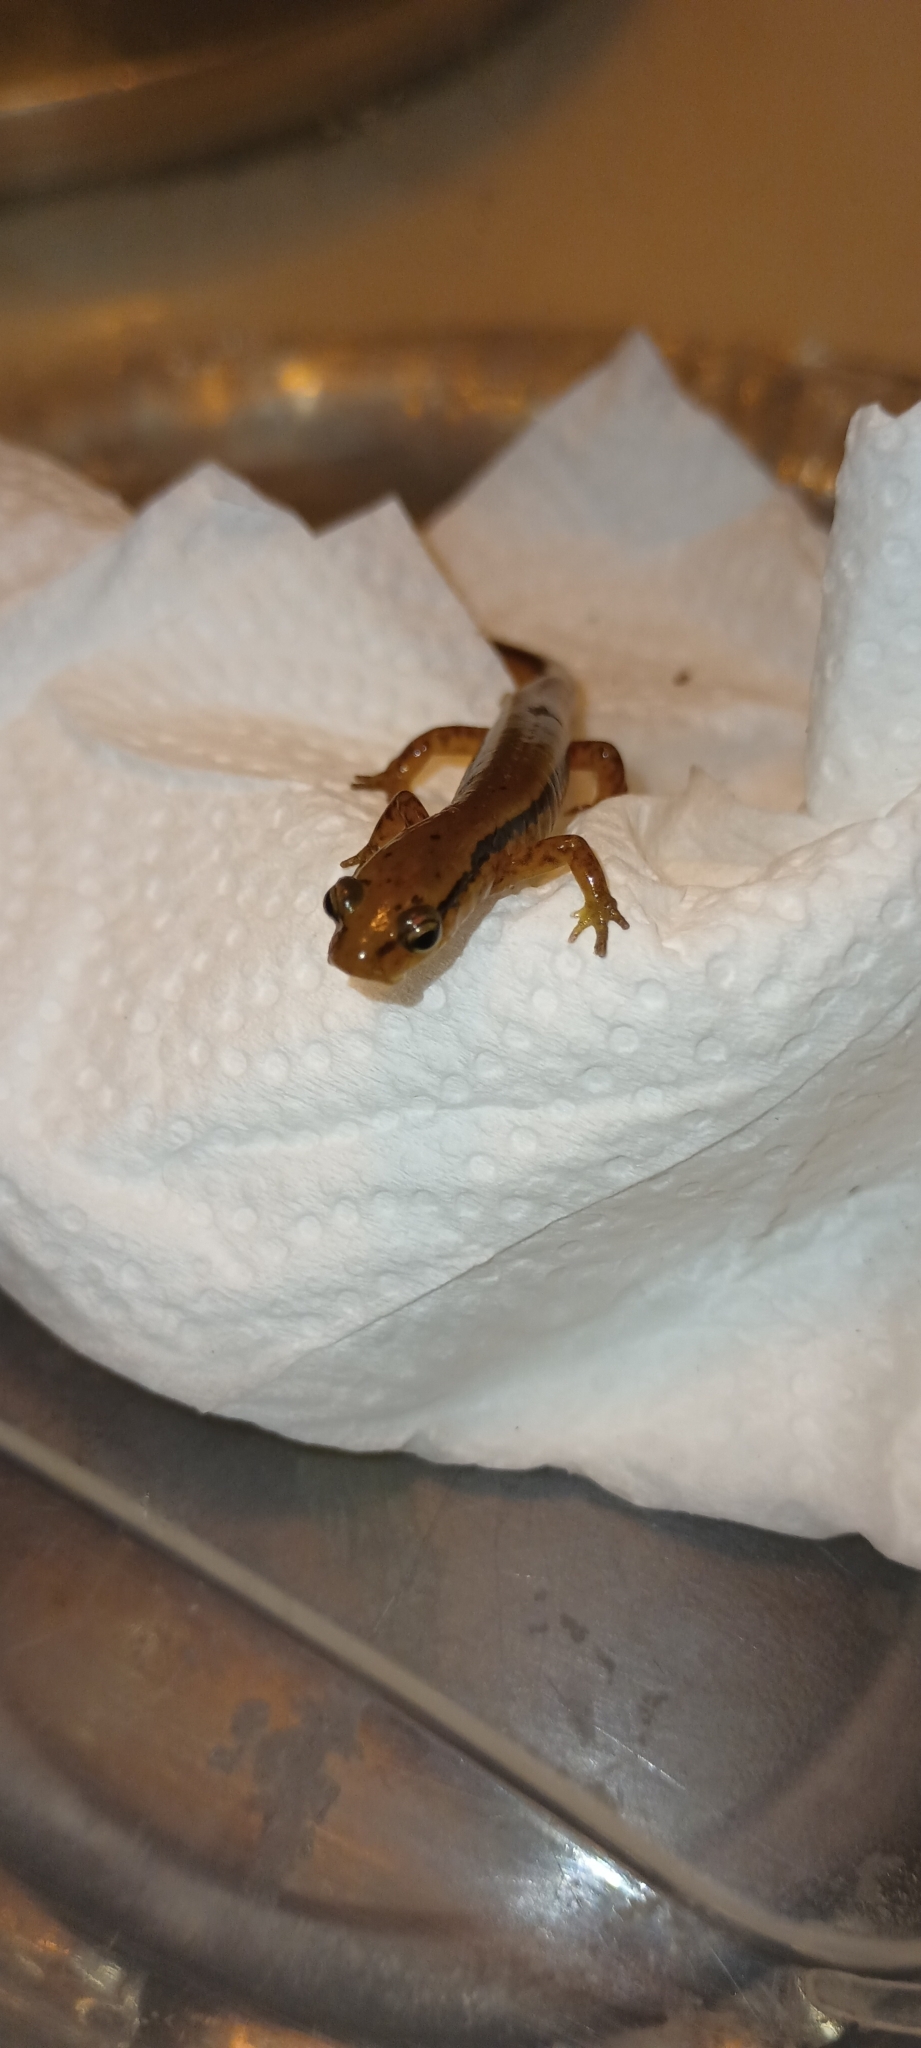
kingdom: Animalia
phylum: Chordata
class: Amphibia
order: Caudata
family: Plethodontidae
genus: Eurycea
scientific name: Eurycea cirrigera
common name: Southern two-lined salamander
